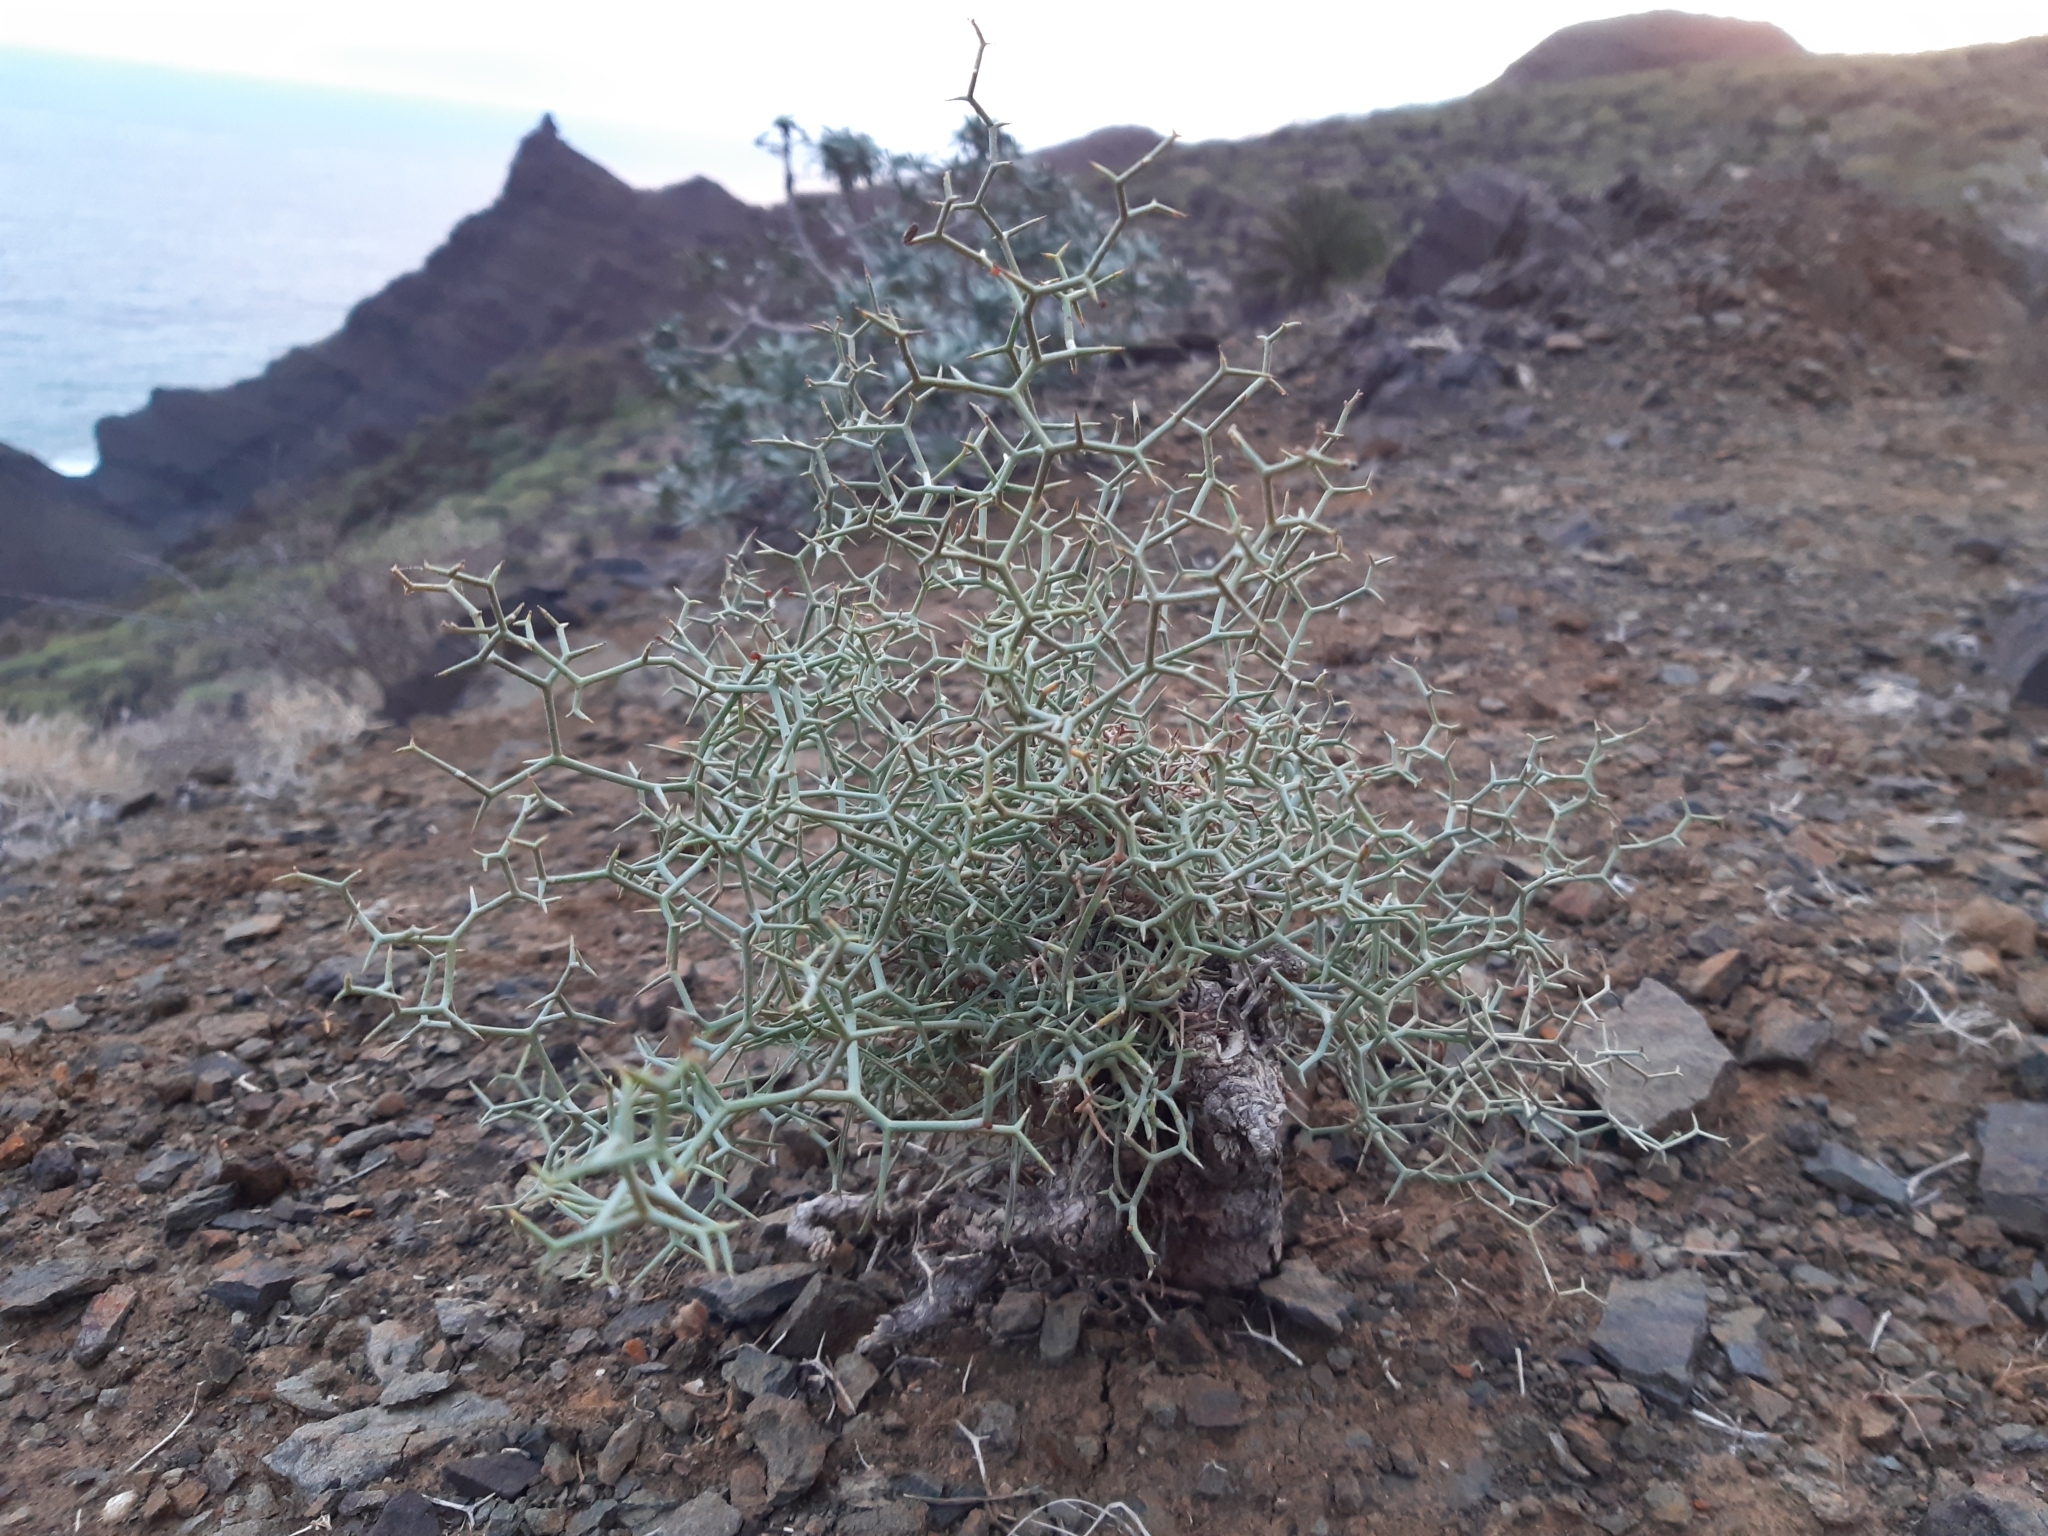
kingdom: Plantae
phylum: Tracheophyta
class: Magnoliopsida
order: Asterales
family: Asteraceae
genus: Launaea
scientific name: Launaea arborescens
